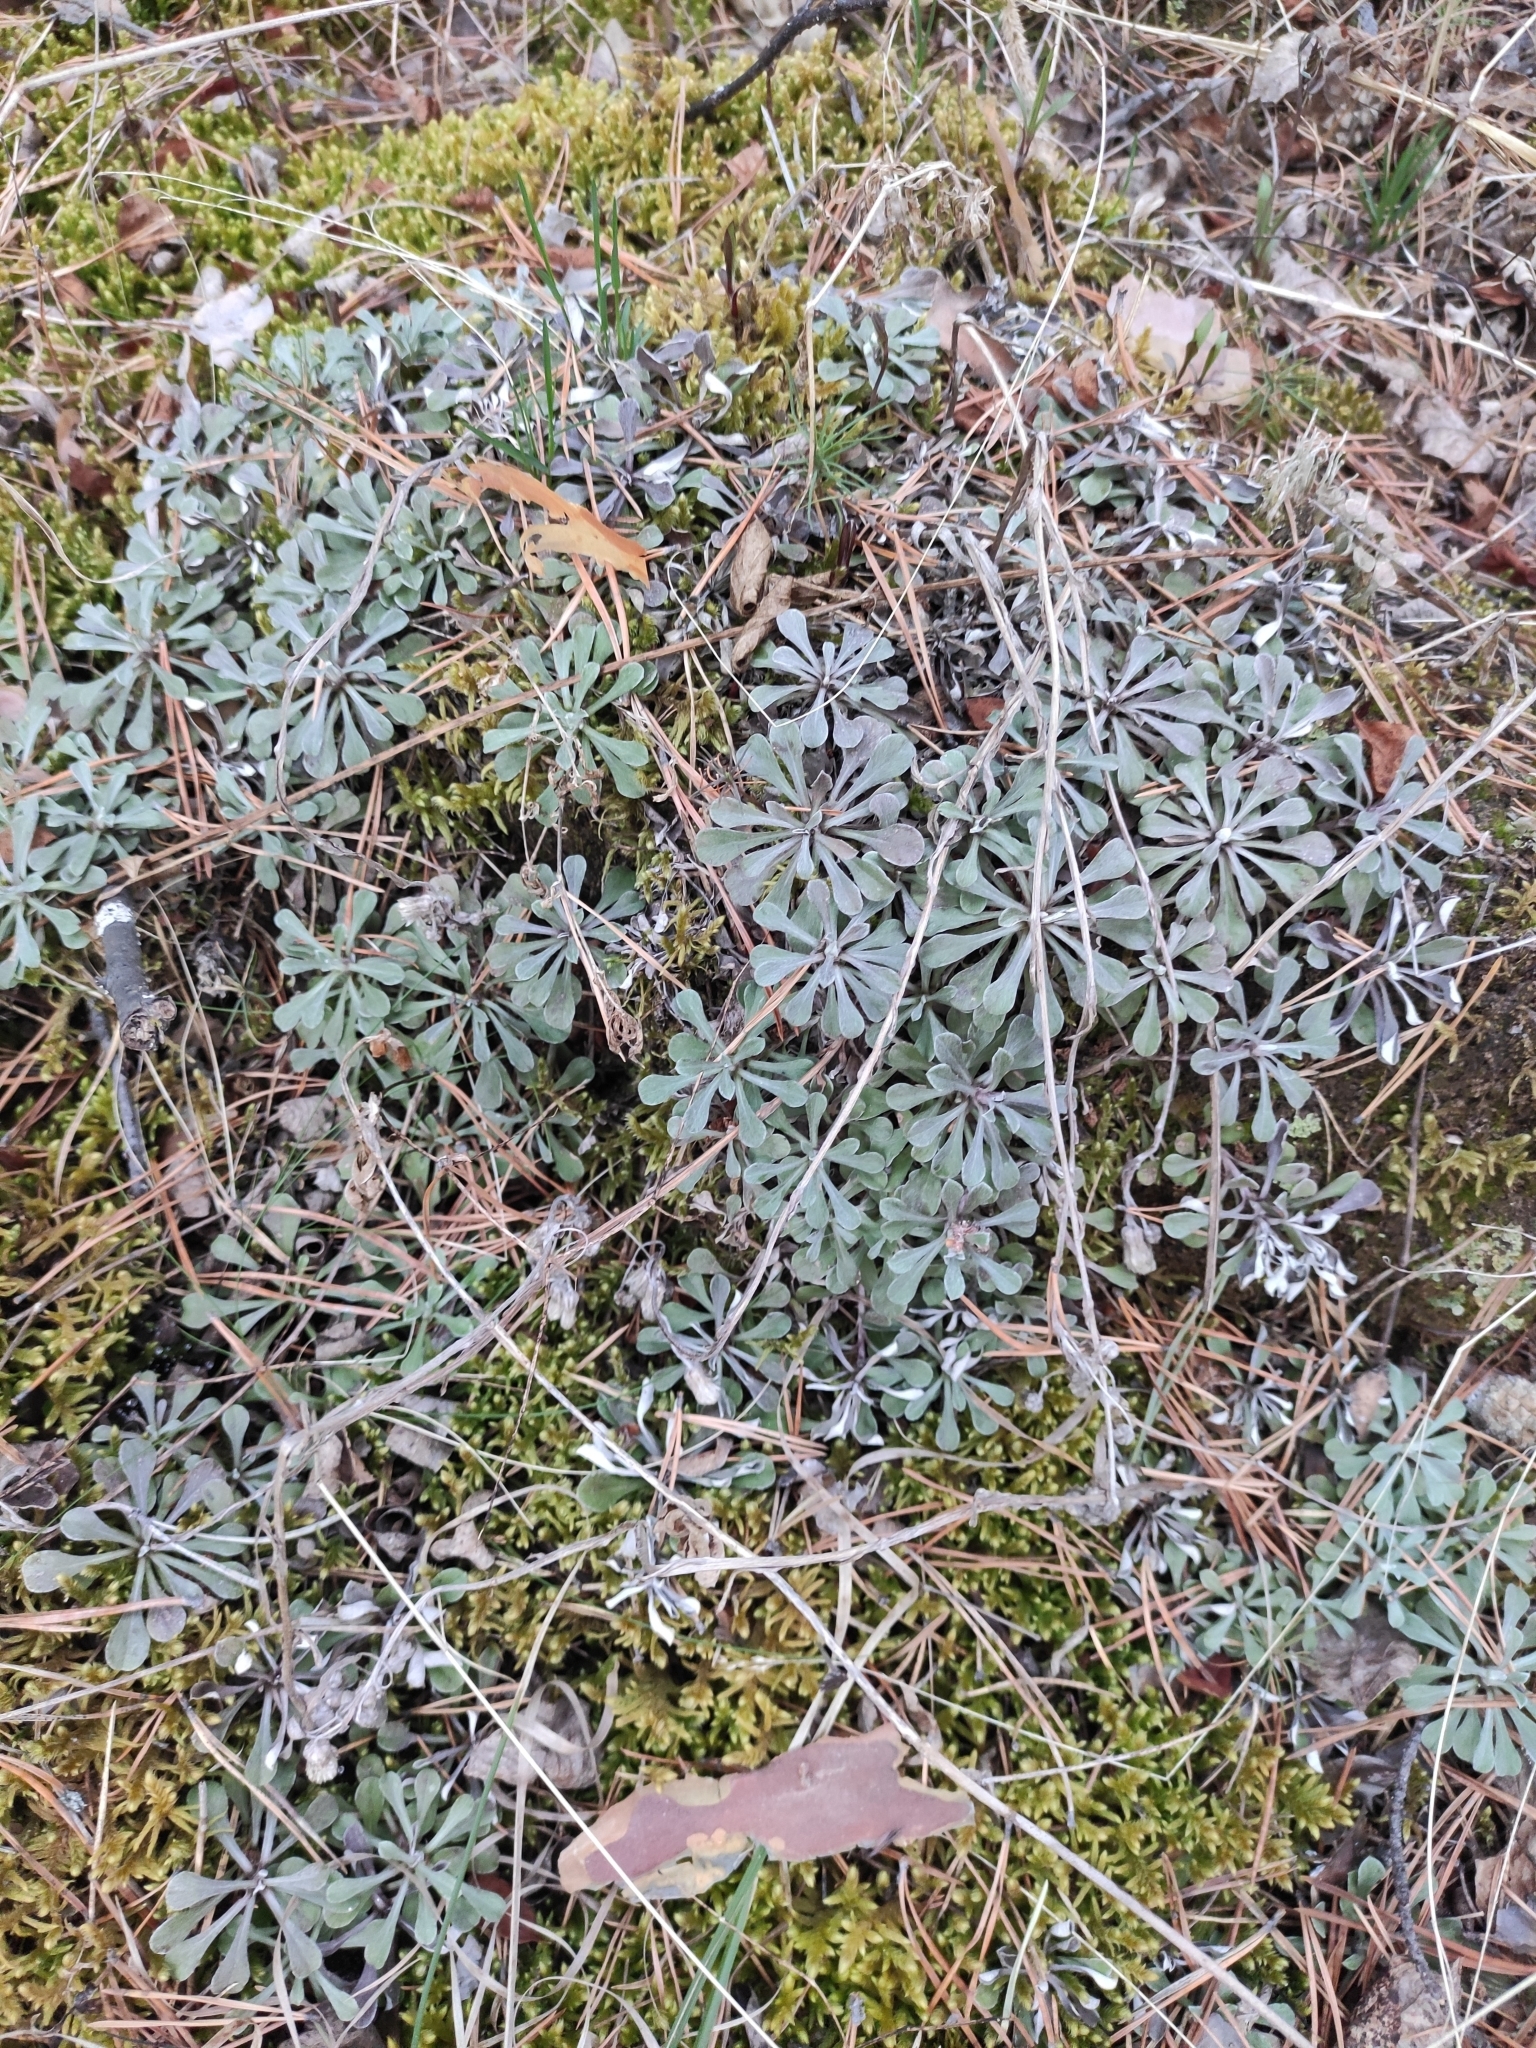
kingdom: Plantae
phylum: Tracheophyta
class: Magnoliopsida
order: Asterales
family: Asteraceae
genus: Antennaria
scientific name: Antennaria dioica
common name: Mountain everlasting
